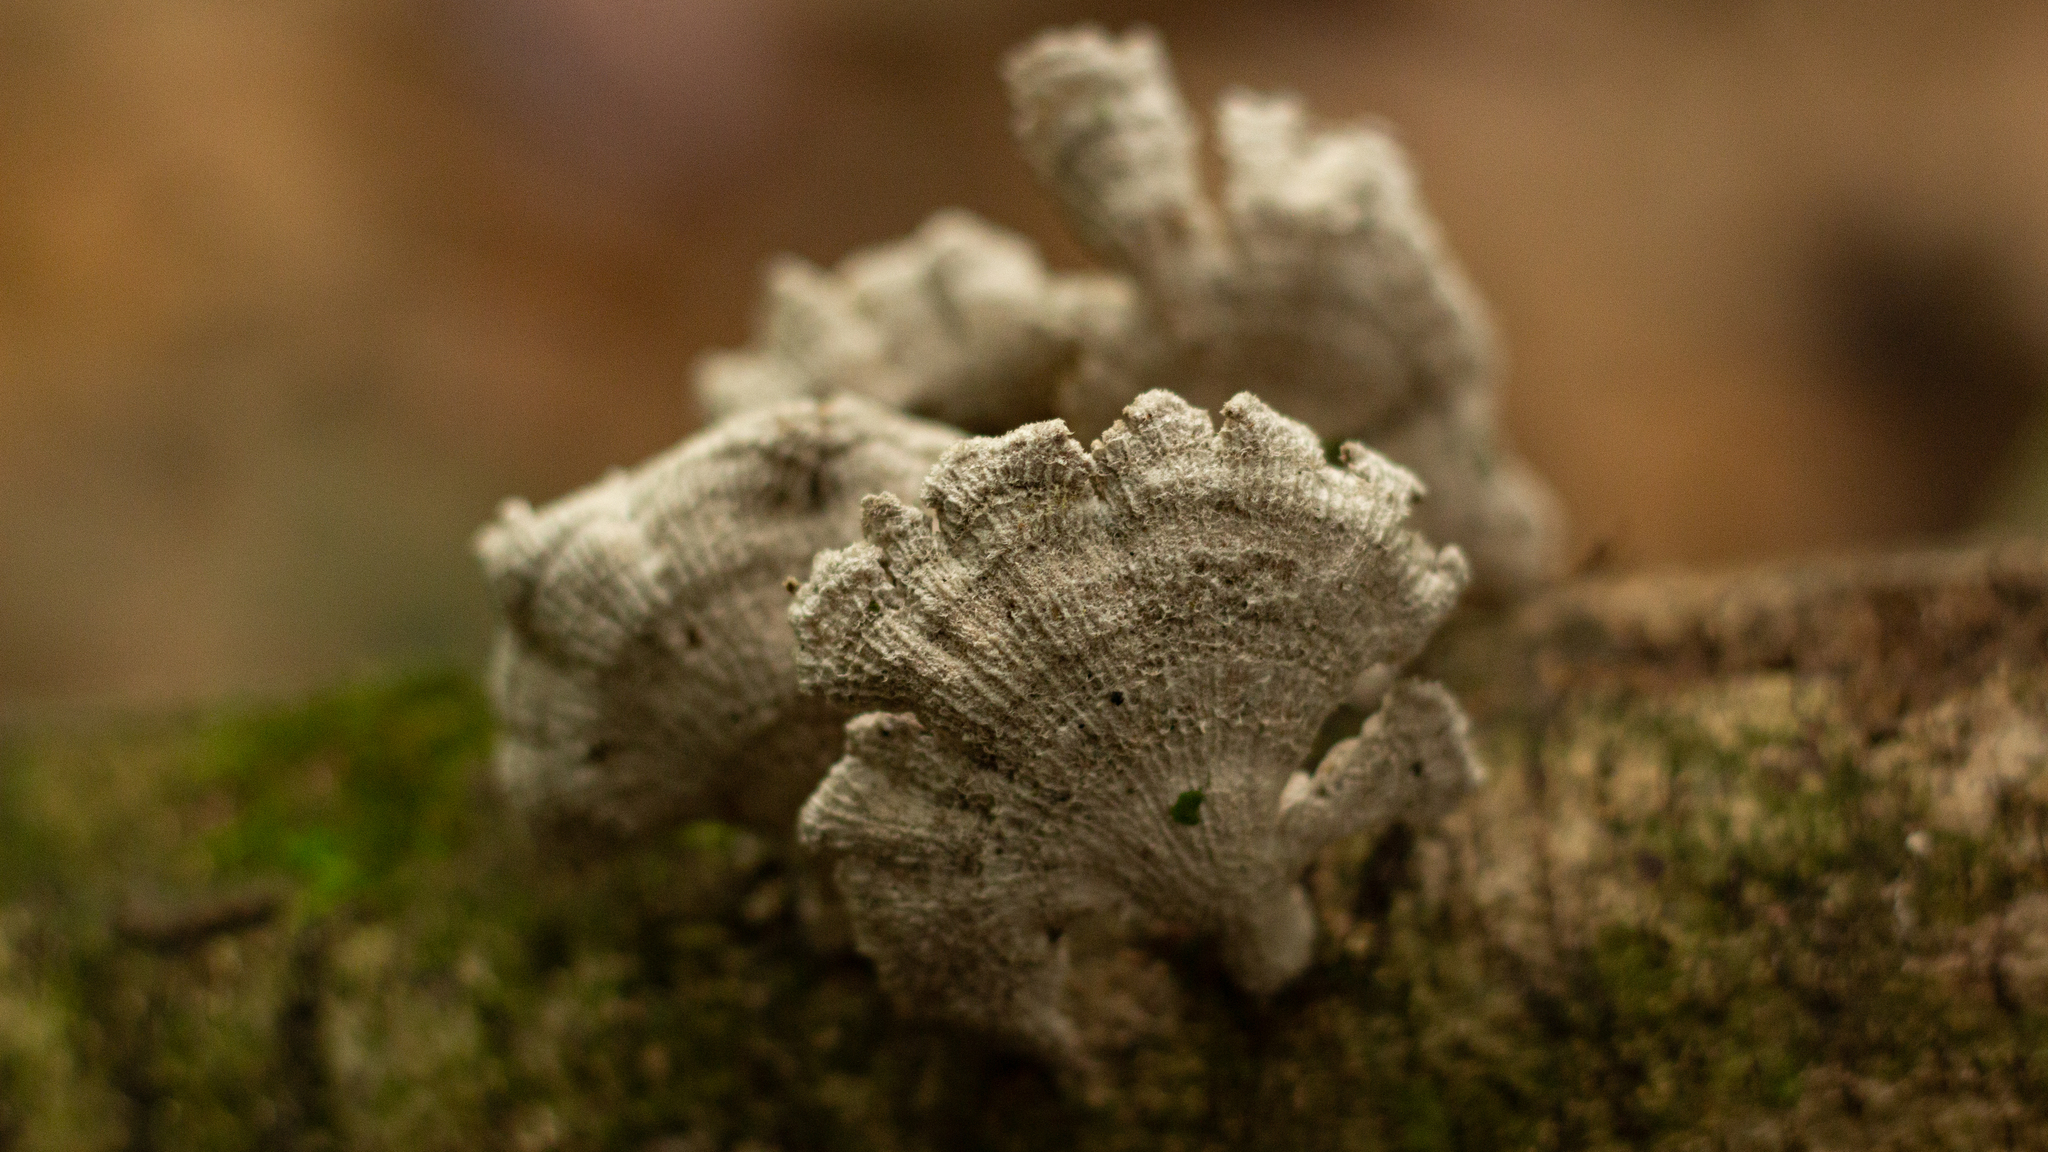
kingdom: Fungi
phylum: Basidiomycota
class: Agaricomycetes
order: Agaricales
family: Schizophyllaceae
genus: Schizophyllum
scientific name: Schizophyllum commune
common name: Common porecrust
